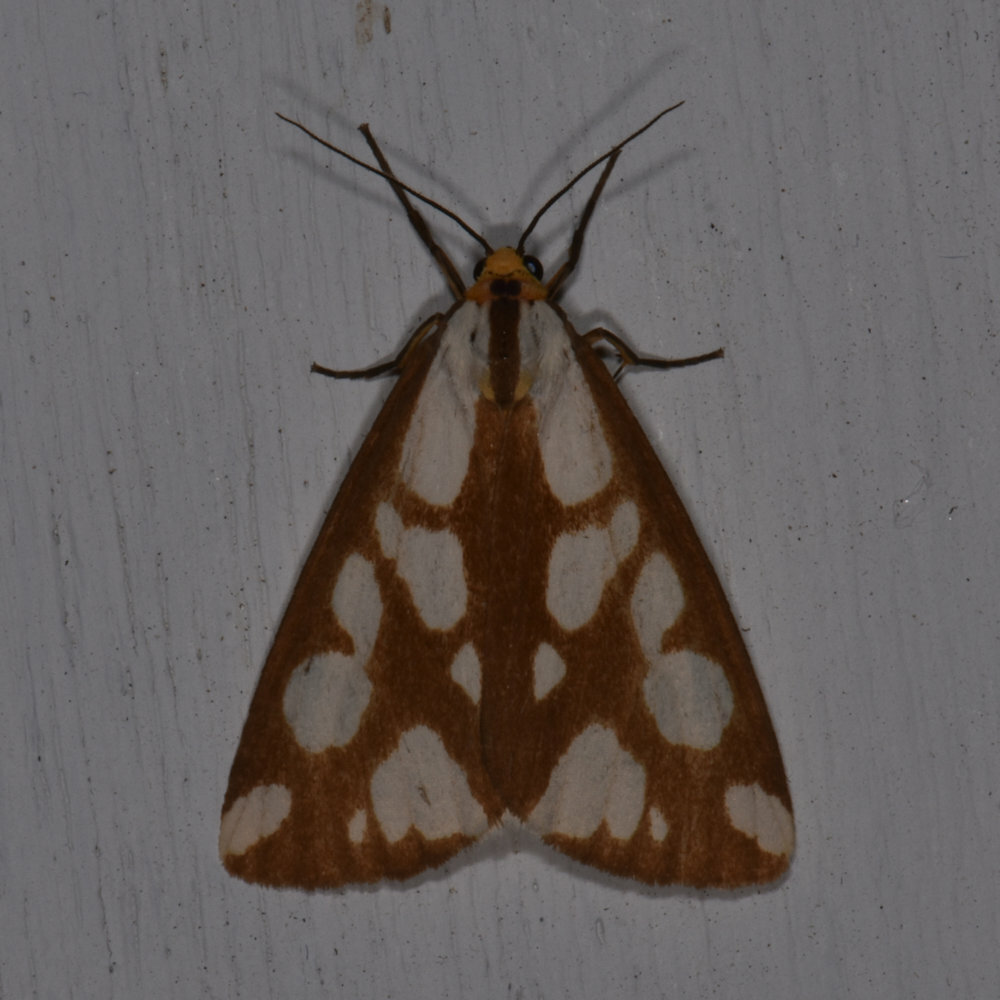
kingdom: Animalia
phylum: Arthropoda
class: Insecta
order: Lepidoptera
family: Erebidae
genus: Haploa
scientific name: Haploa confusa
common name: Confused haploa moth
